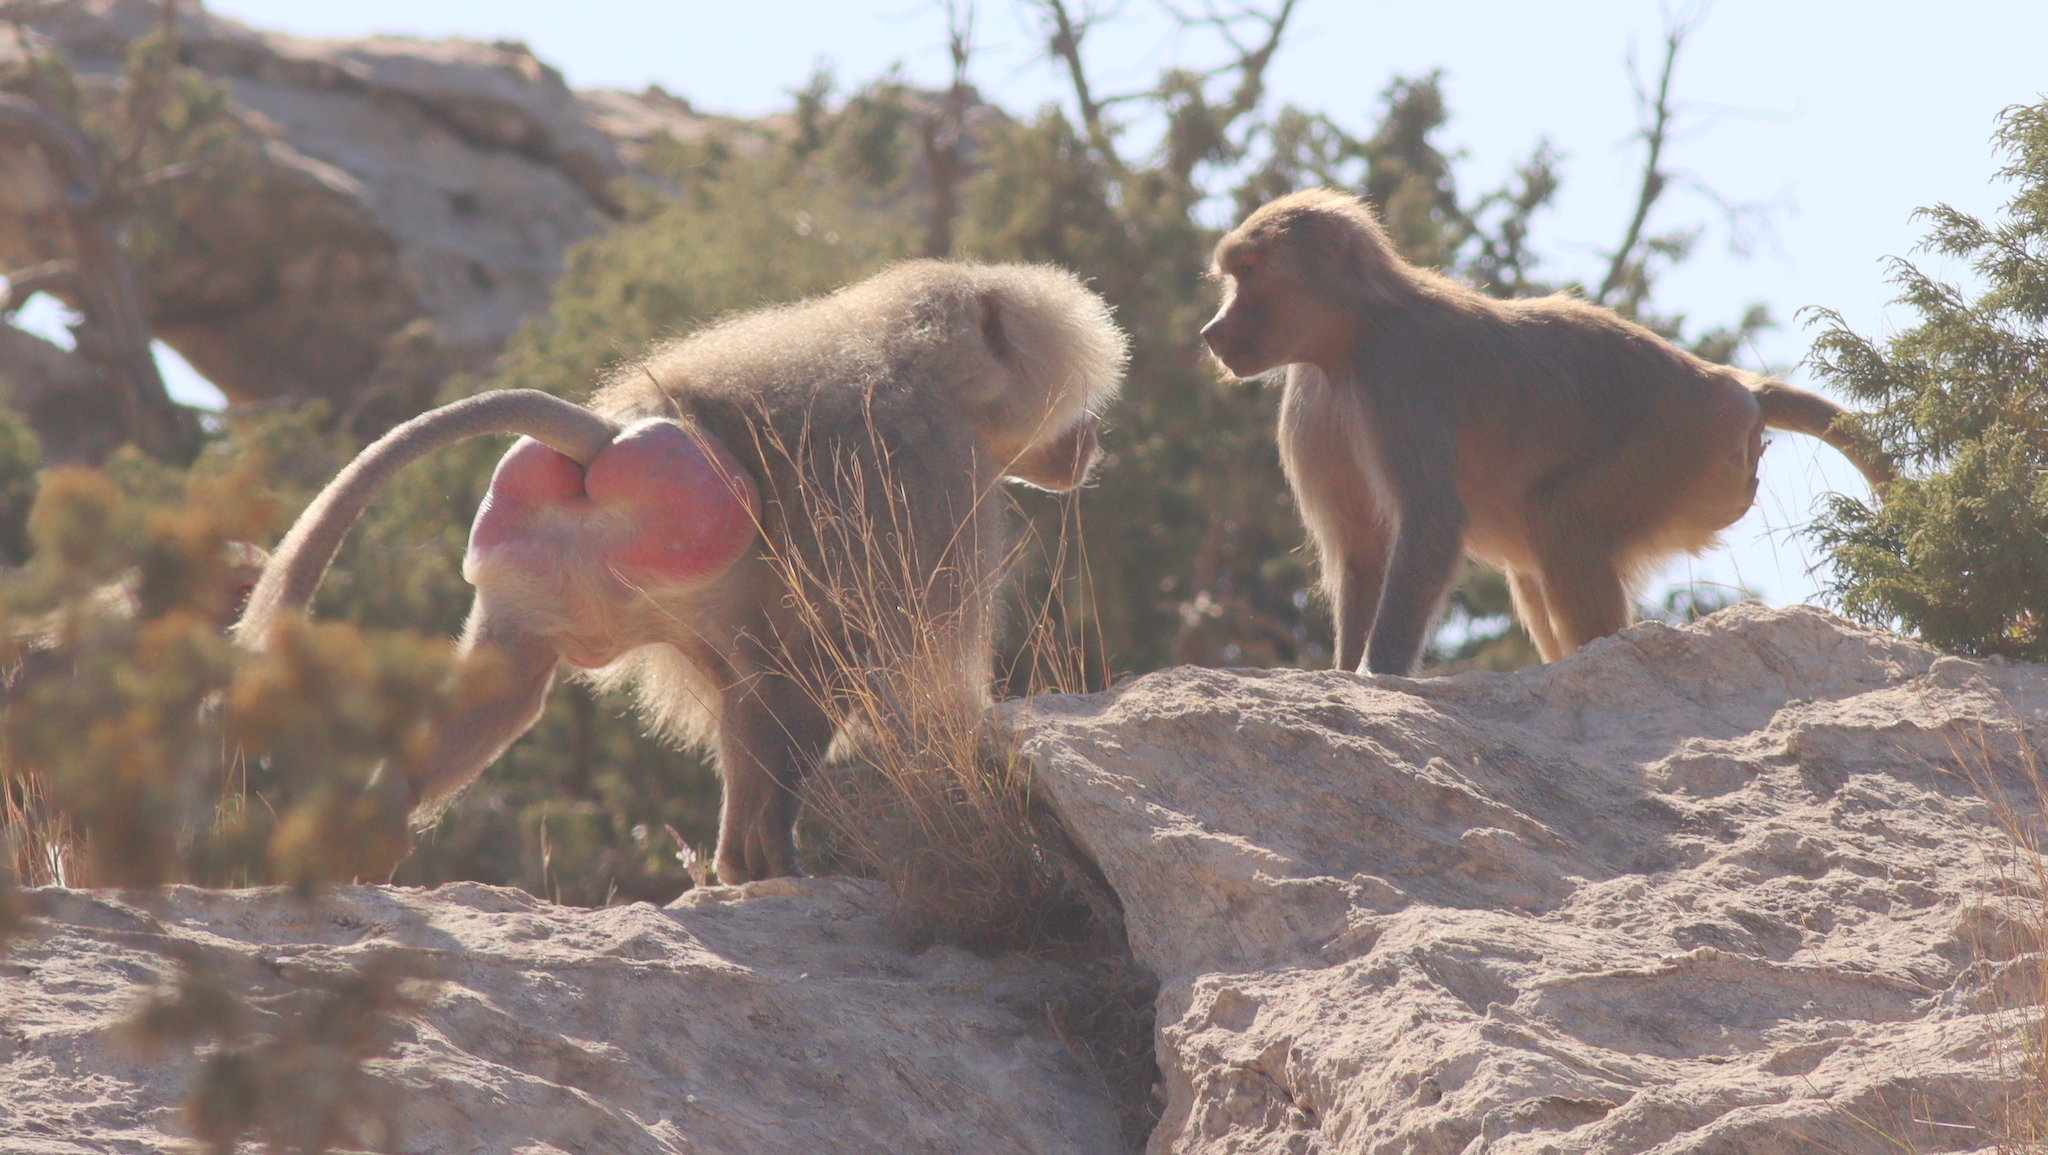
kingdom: Animalia
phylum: Chordata
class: Mammalia
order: Primates
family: Cercopithecidae
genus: Papio
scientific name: Papio hamadryas
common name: Hamadryas baboon
